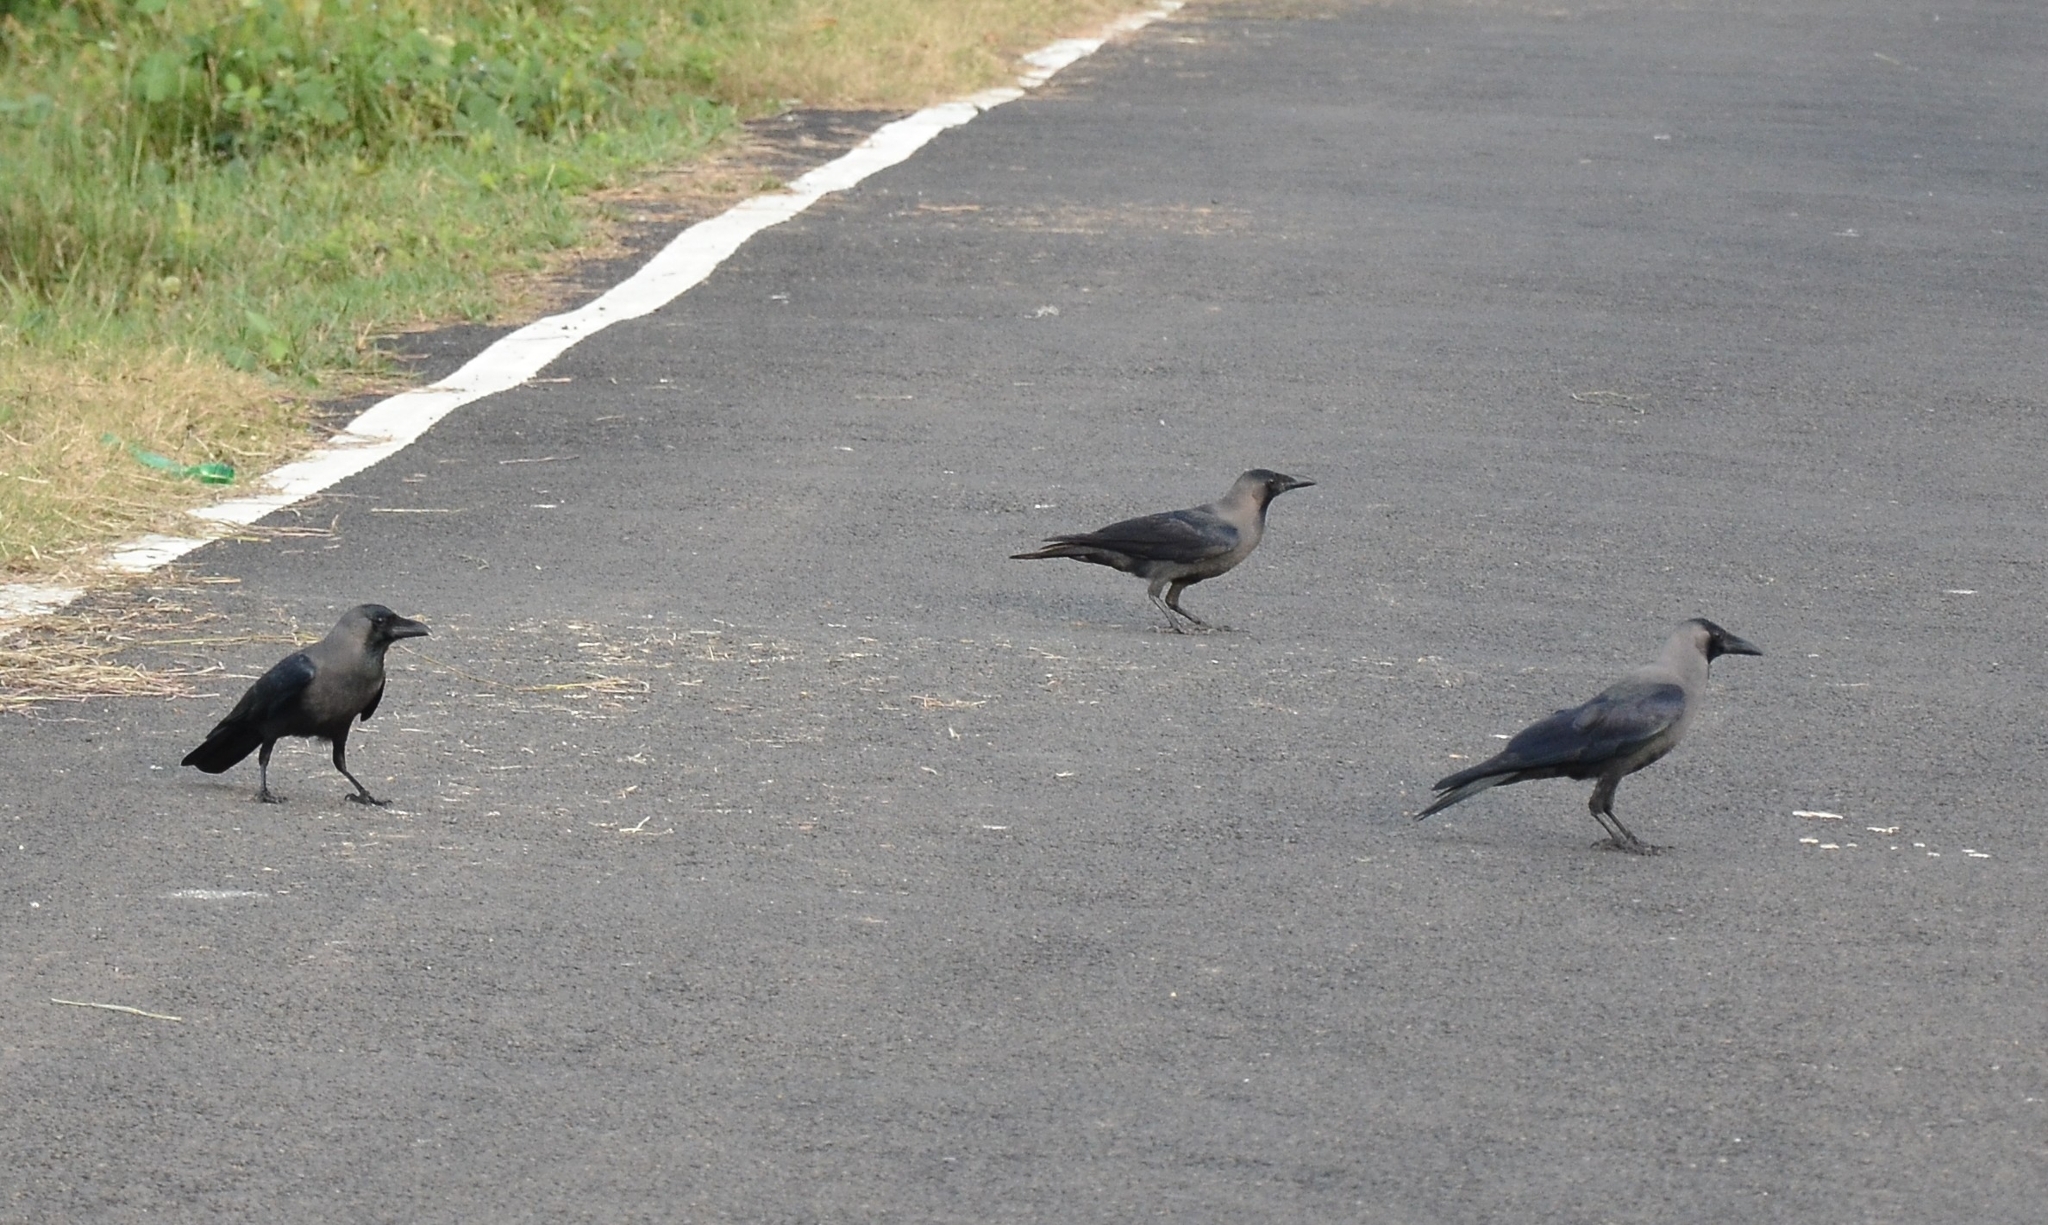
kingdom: Animalia
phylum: Chordata
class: Aves
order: Passeriformes
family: Corvidae
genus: Corvus
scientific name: Corvus splendens
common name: House crow
